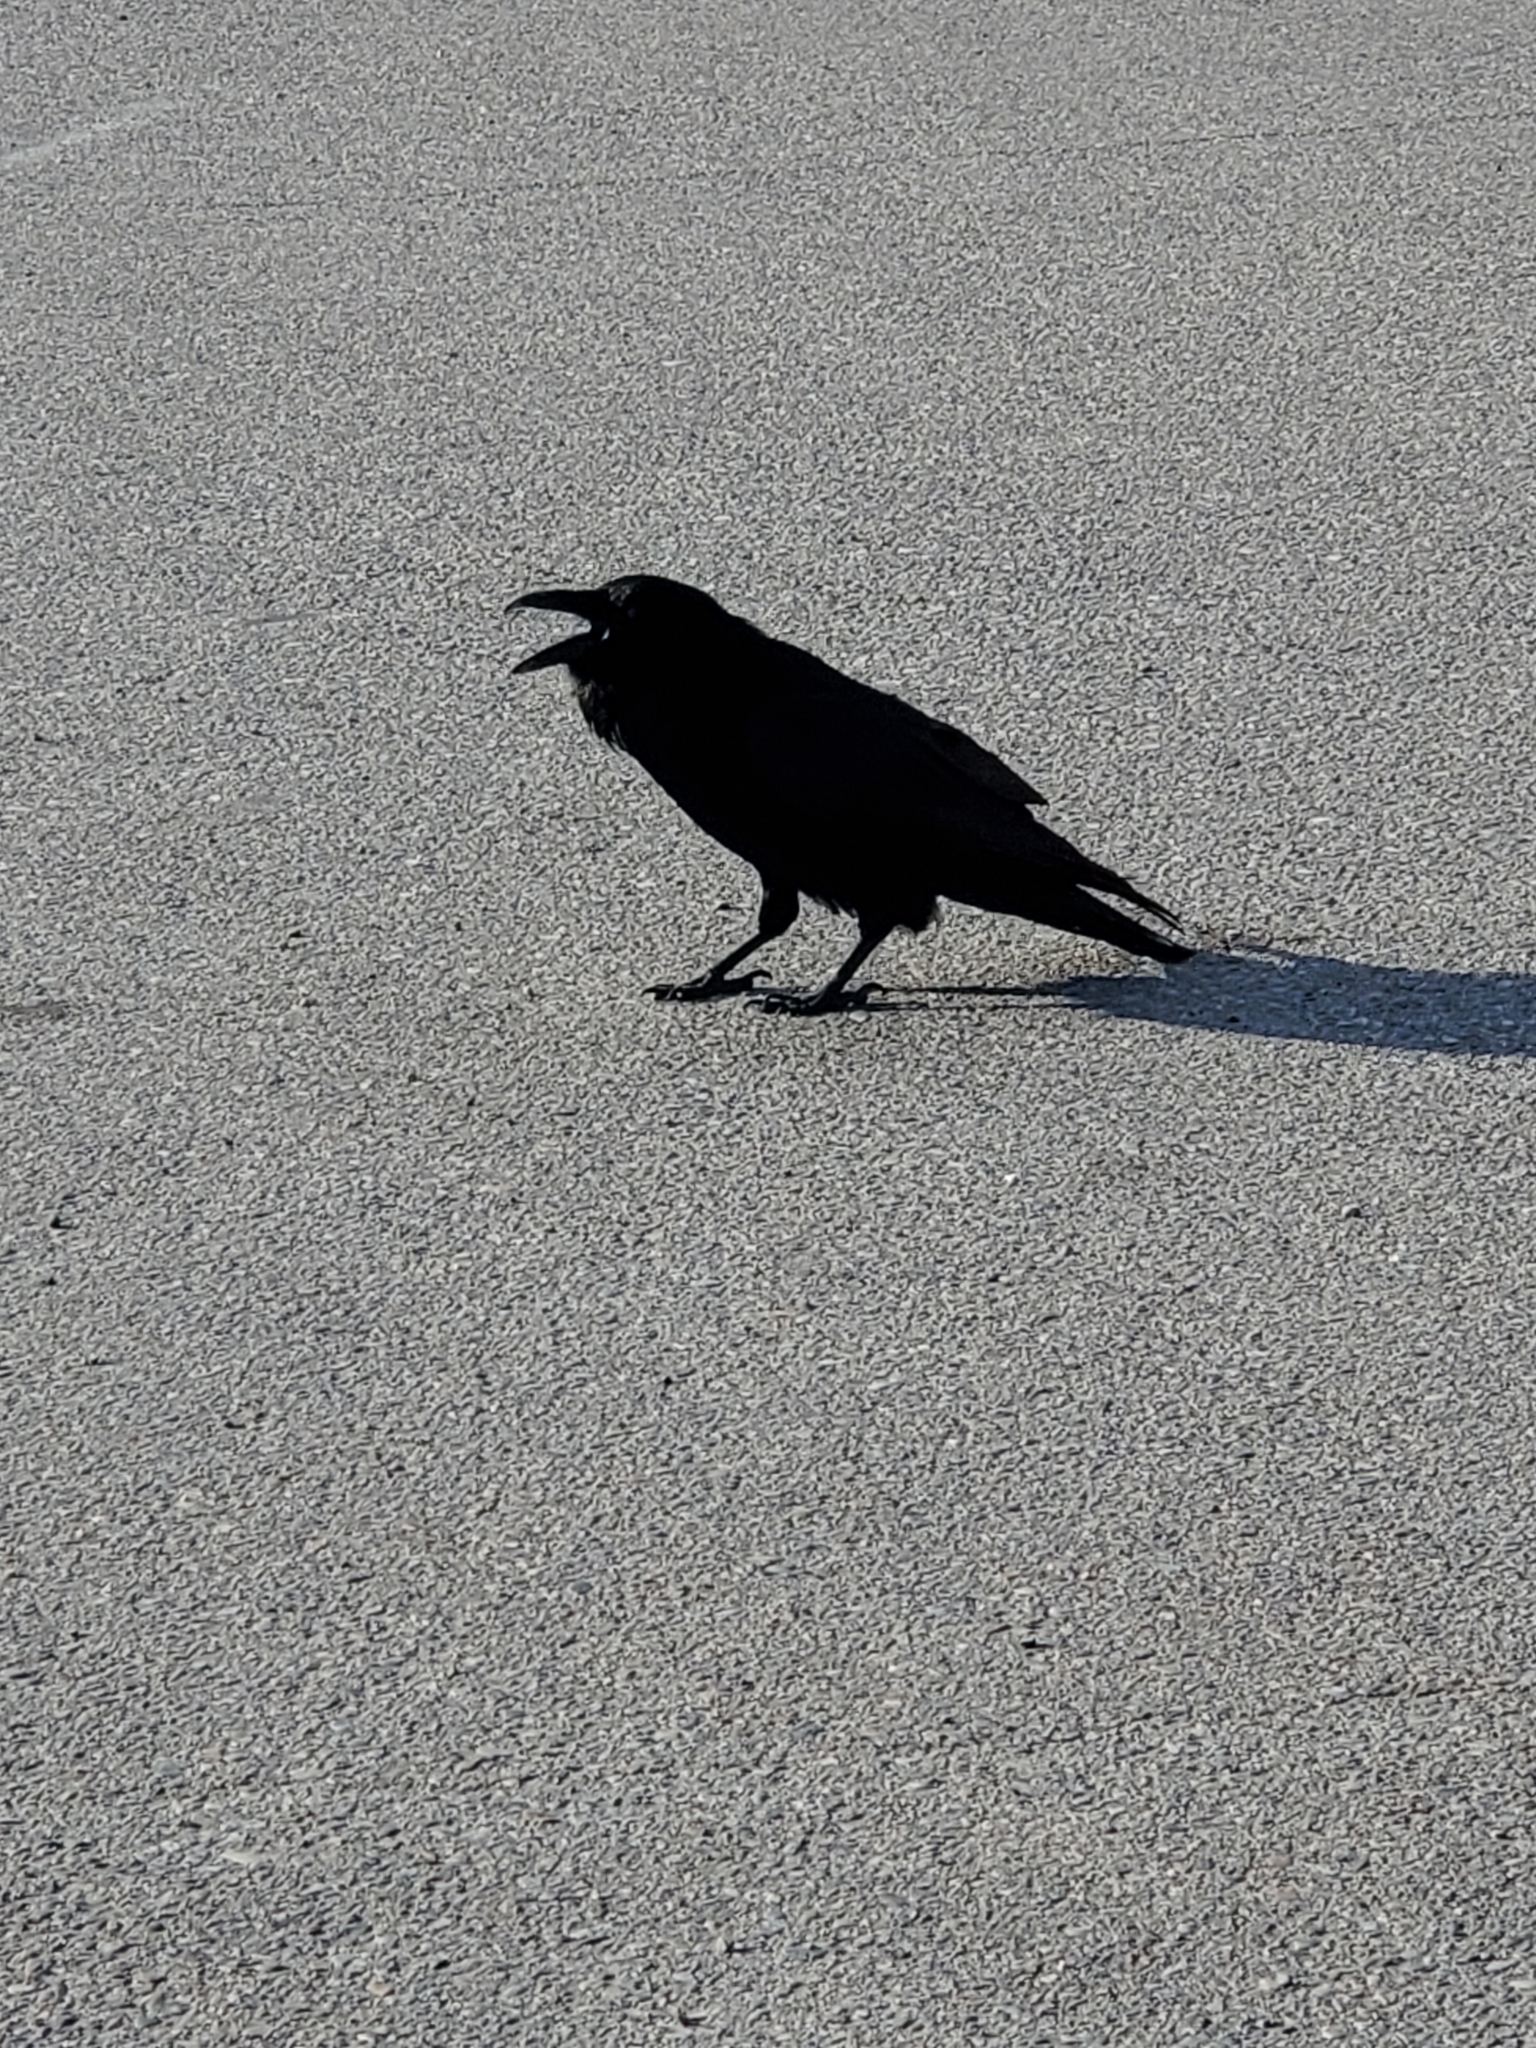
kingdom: Animalia
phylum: Chordata
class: Aves
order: Passeriformes
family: Corvidae
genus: Corvus
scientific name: Corvus corax
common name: Common raven
